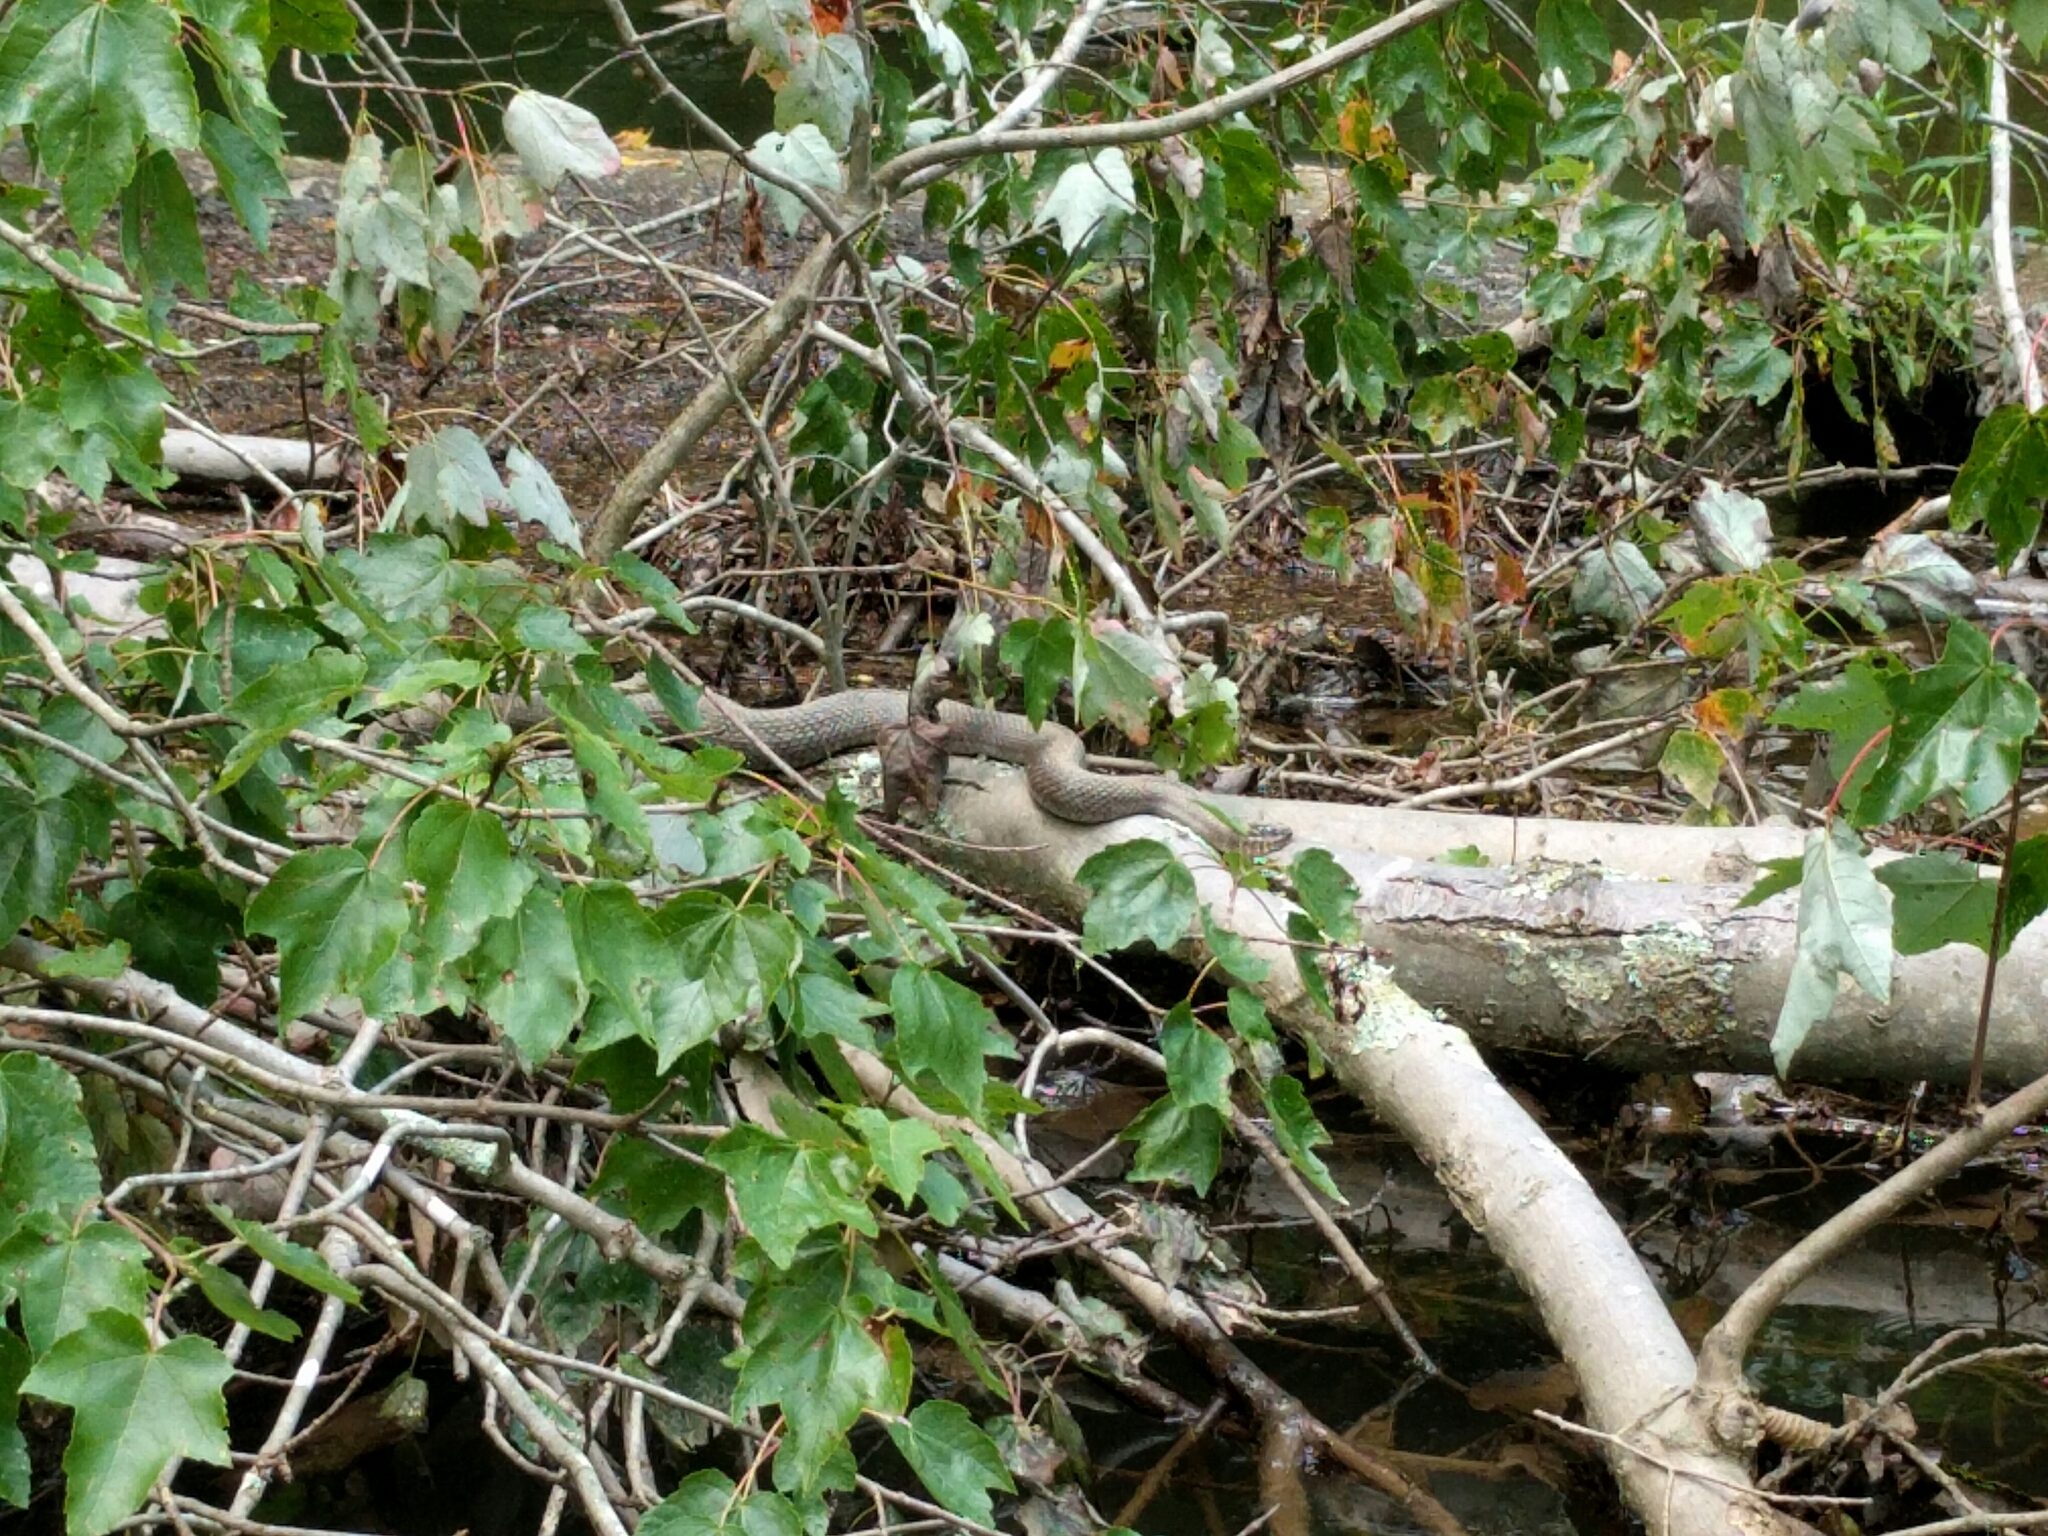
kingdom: Animalia
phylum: Chordata
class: Squamata
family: Colubridae
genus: Nerodia
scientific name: Nerodia sipedon
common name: Northern water snake
